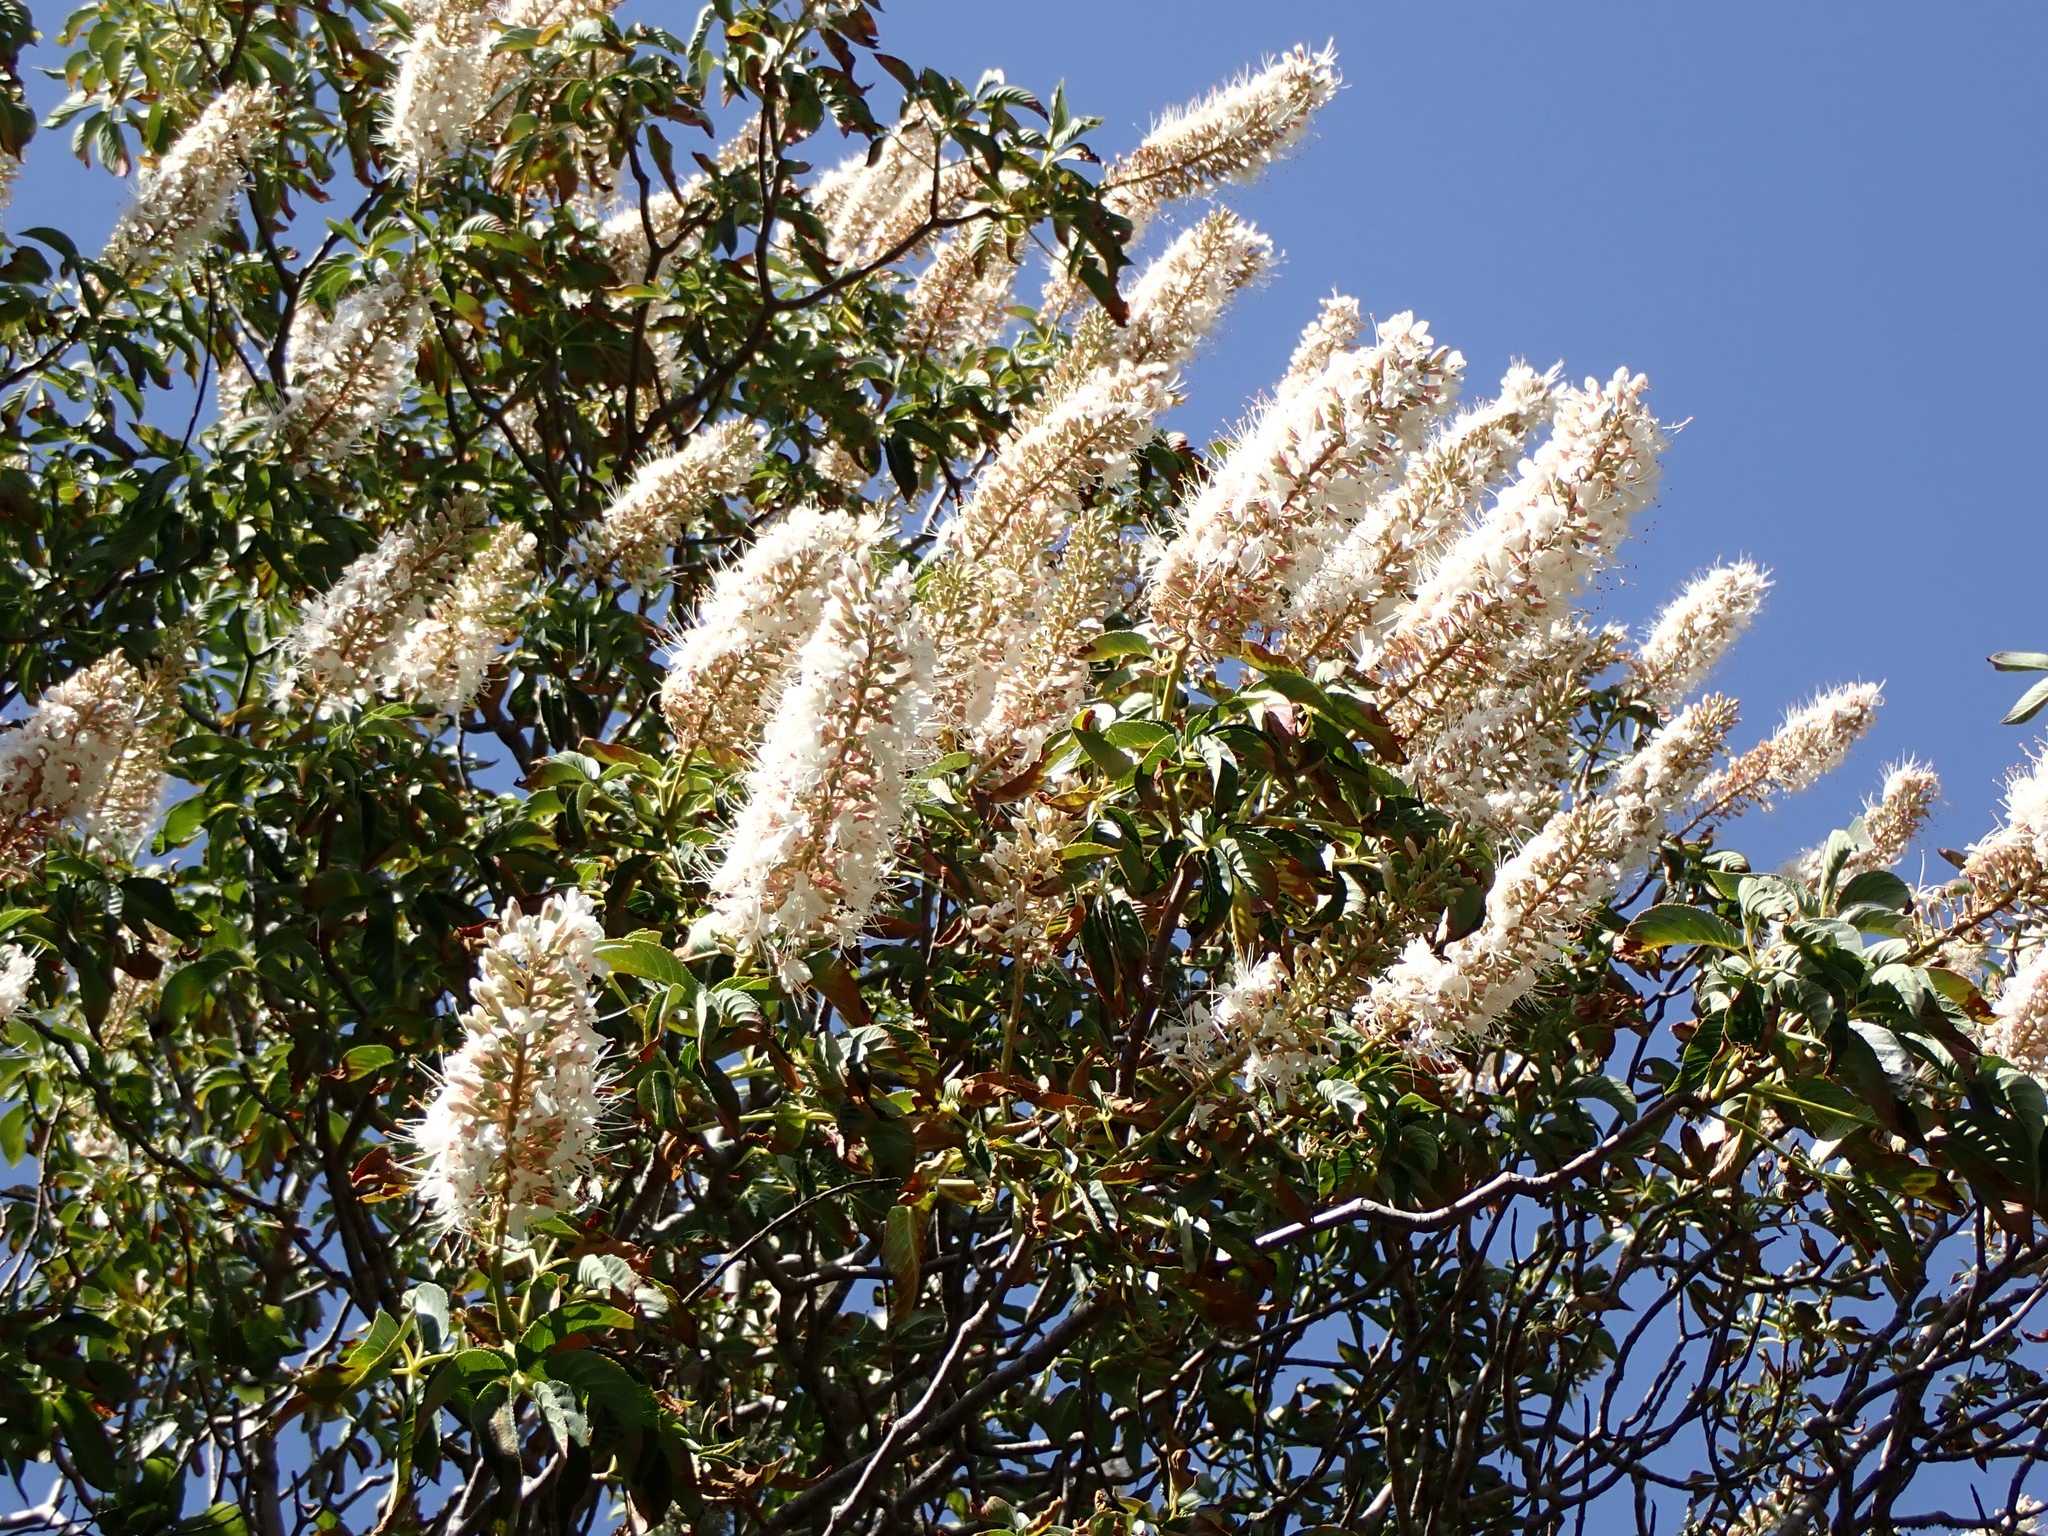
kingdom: Plantae
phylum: Tracheophyta
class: Magnoliopsida
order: Sapindales
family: Sapindaceae
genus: Aesculus
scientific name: Aesculus californica
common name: California buckeye
